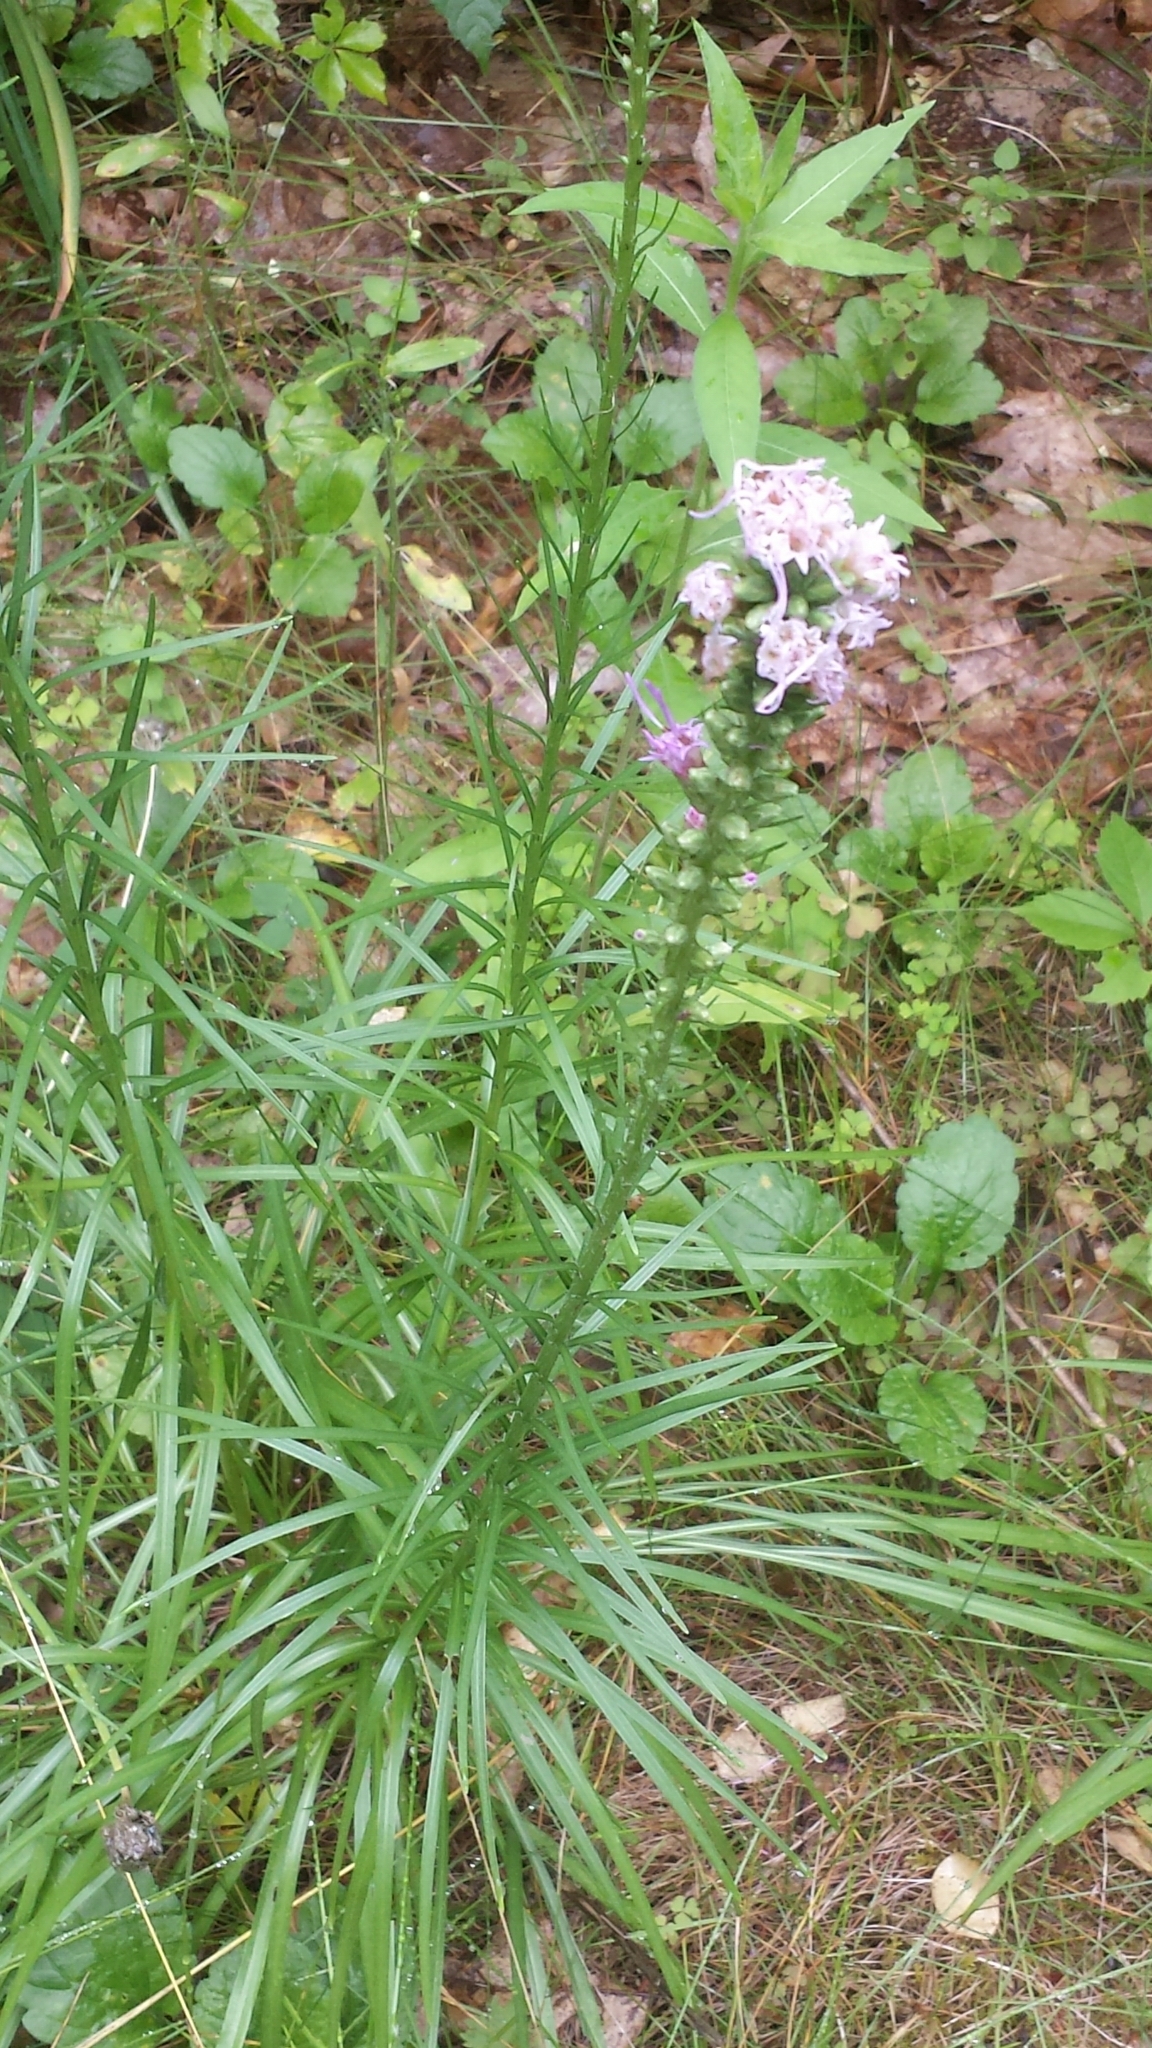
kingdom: Plantae
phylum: Tracheophyta
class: Magnoliopsida
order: Asterales
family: Asteraceae
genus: Liatris
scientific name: Liatris spicata
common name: Florist gayfeather
